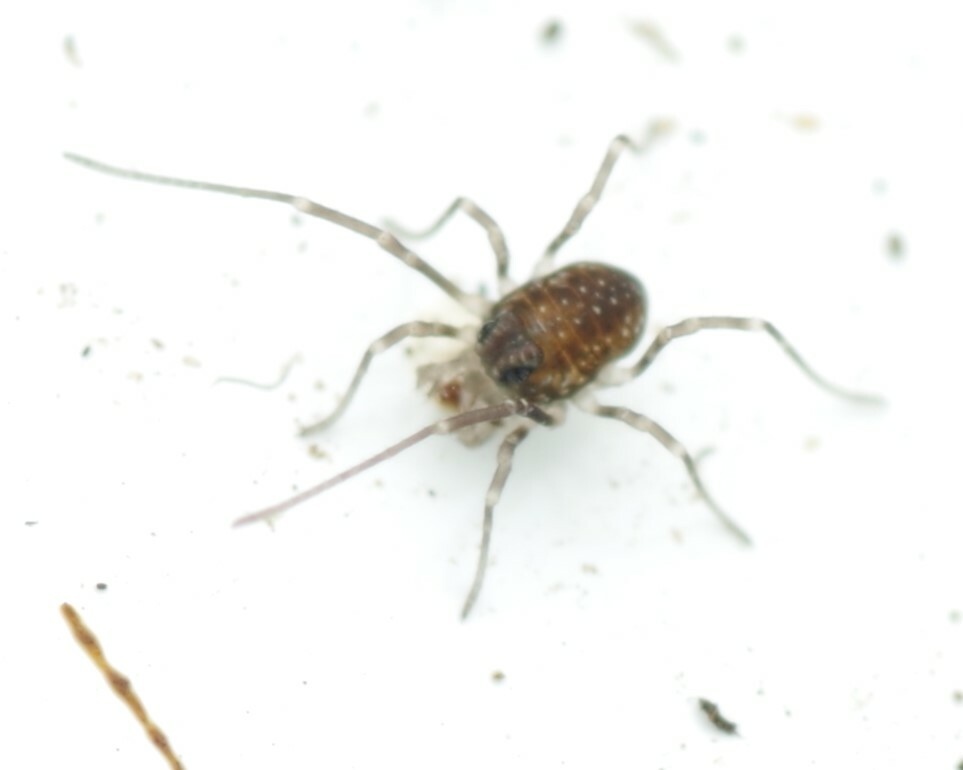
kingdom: Animalia
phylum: Arthropoda
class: Arachnida
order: Opiliones
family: Phalangiidae
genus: Rilaena
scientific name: Rilaena triangularis
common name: Spring harvestman
